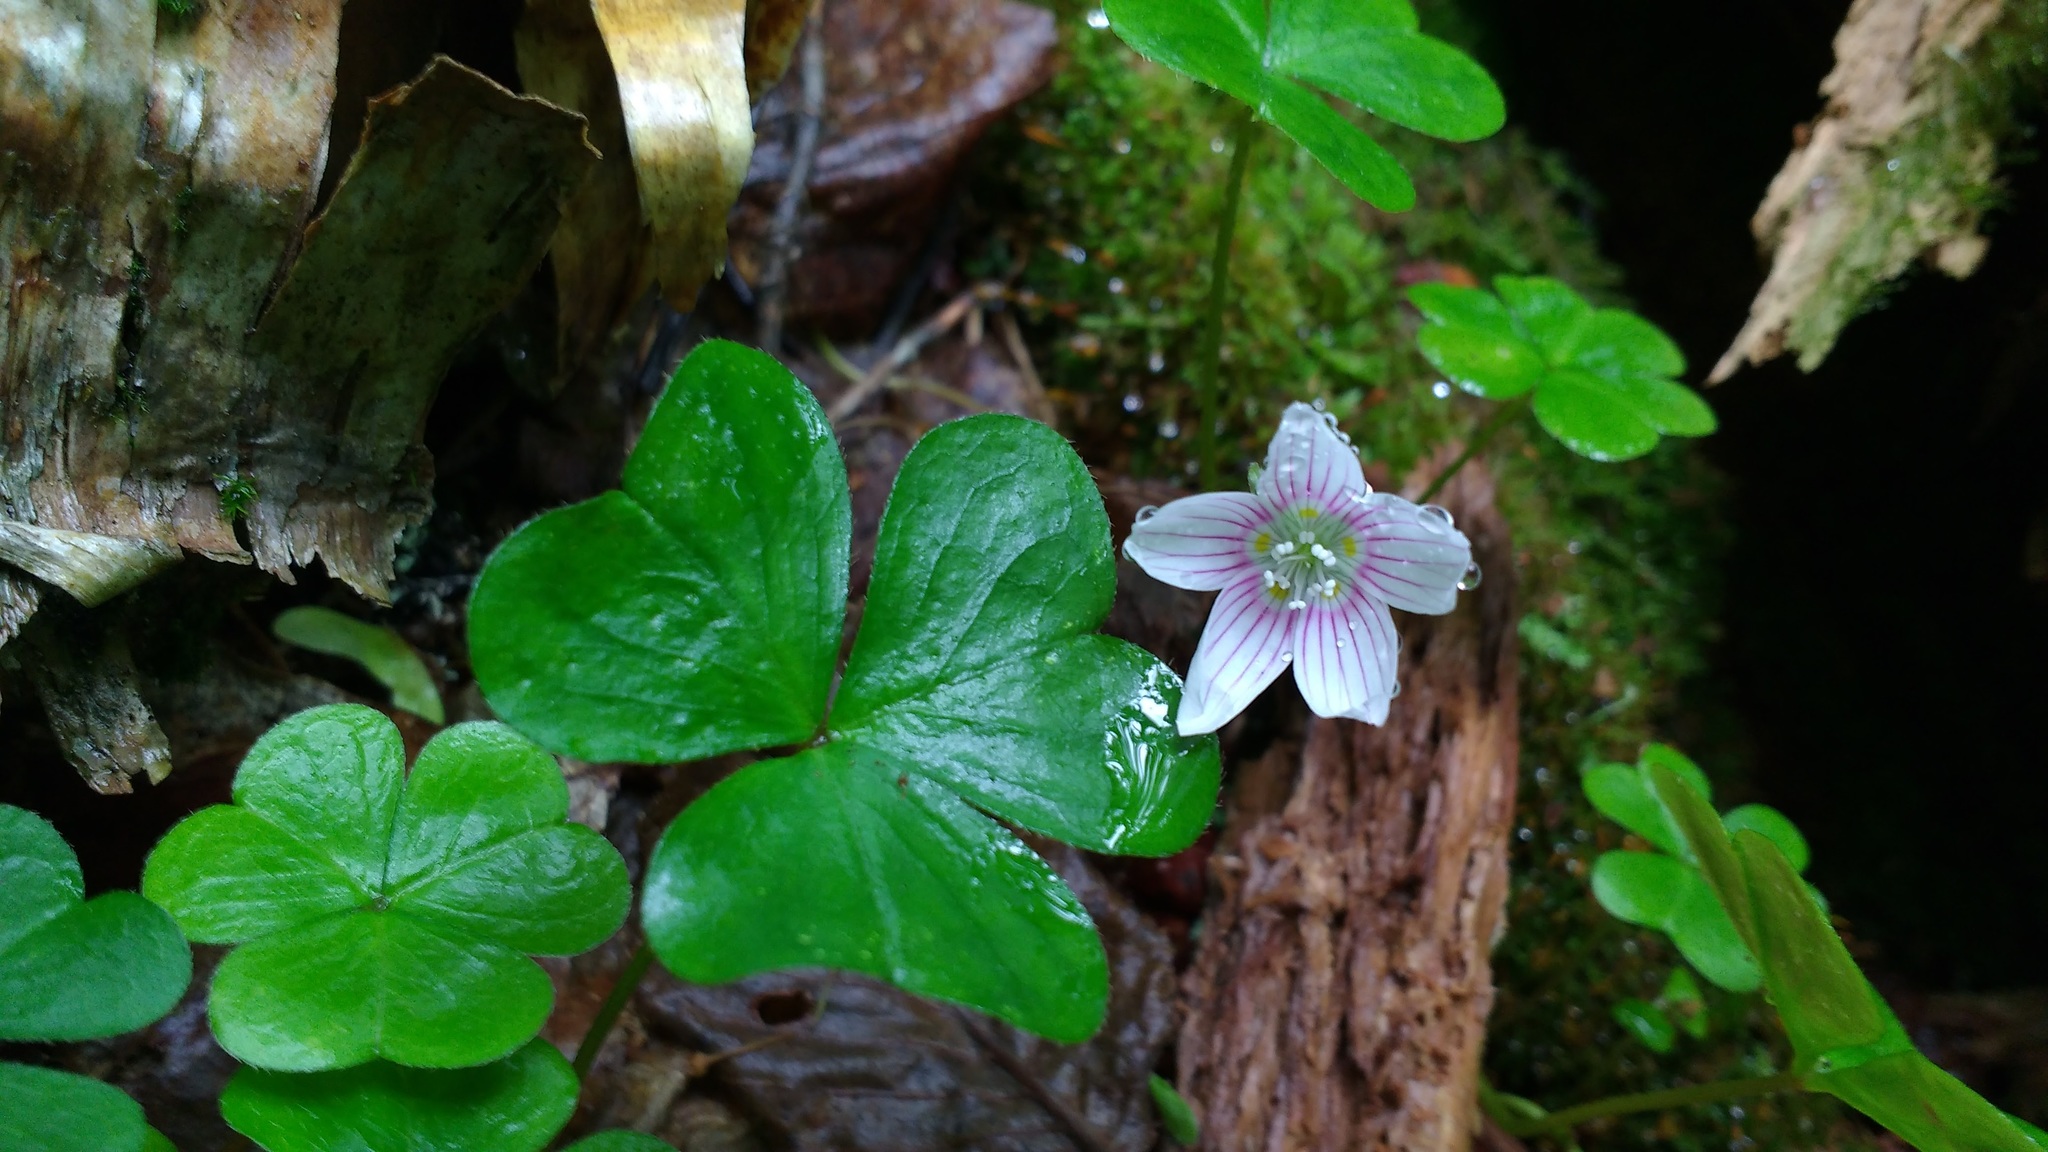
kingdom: Plantae
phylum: Tracheophyta
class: Magnoliopsida
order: Oxalidales
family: Oxalidaceae
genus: Oxalis
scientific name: Oxalis montana
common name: American wood-sorrel
